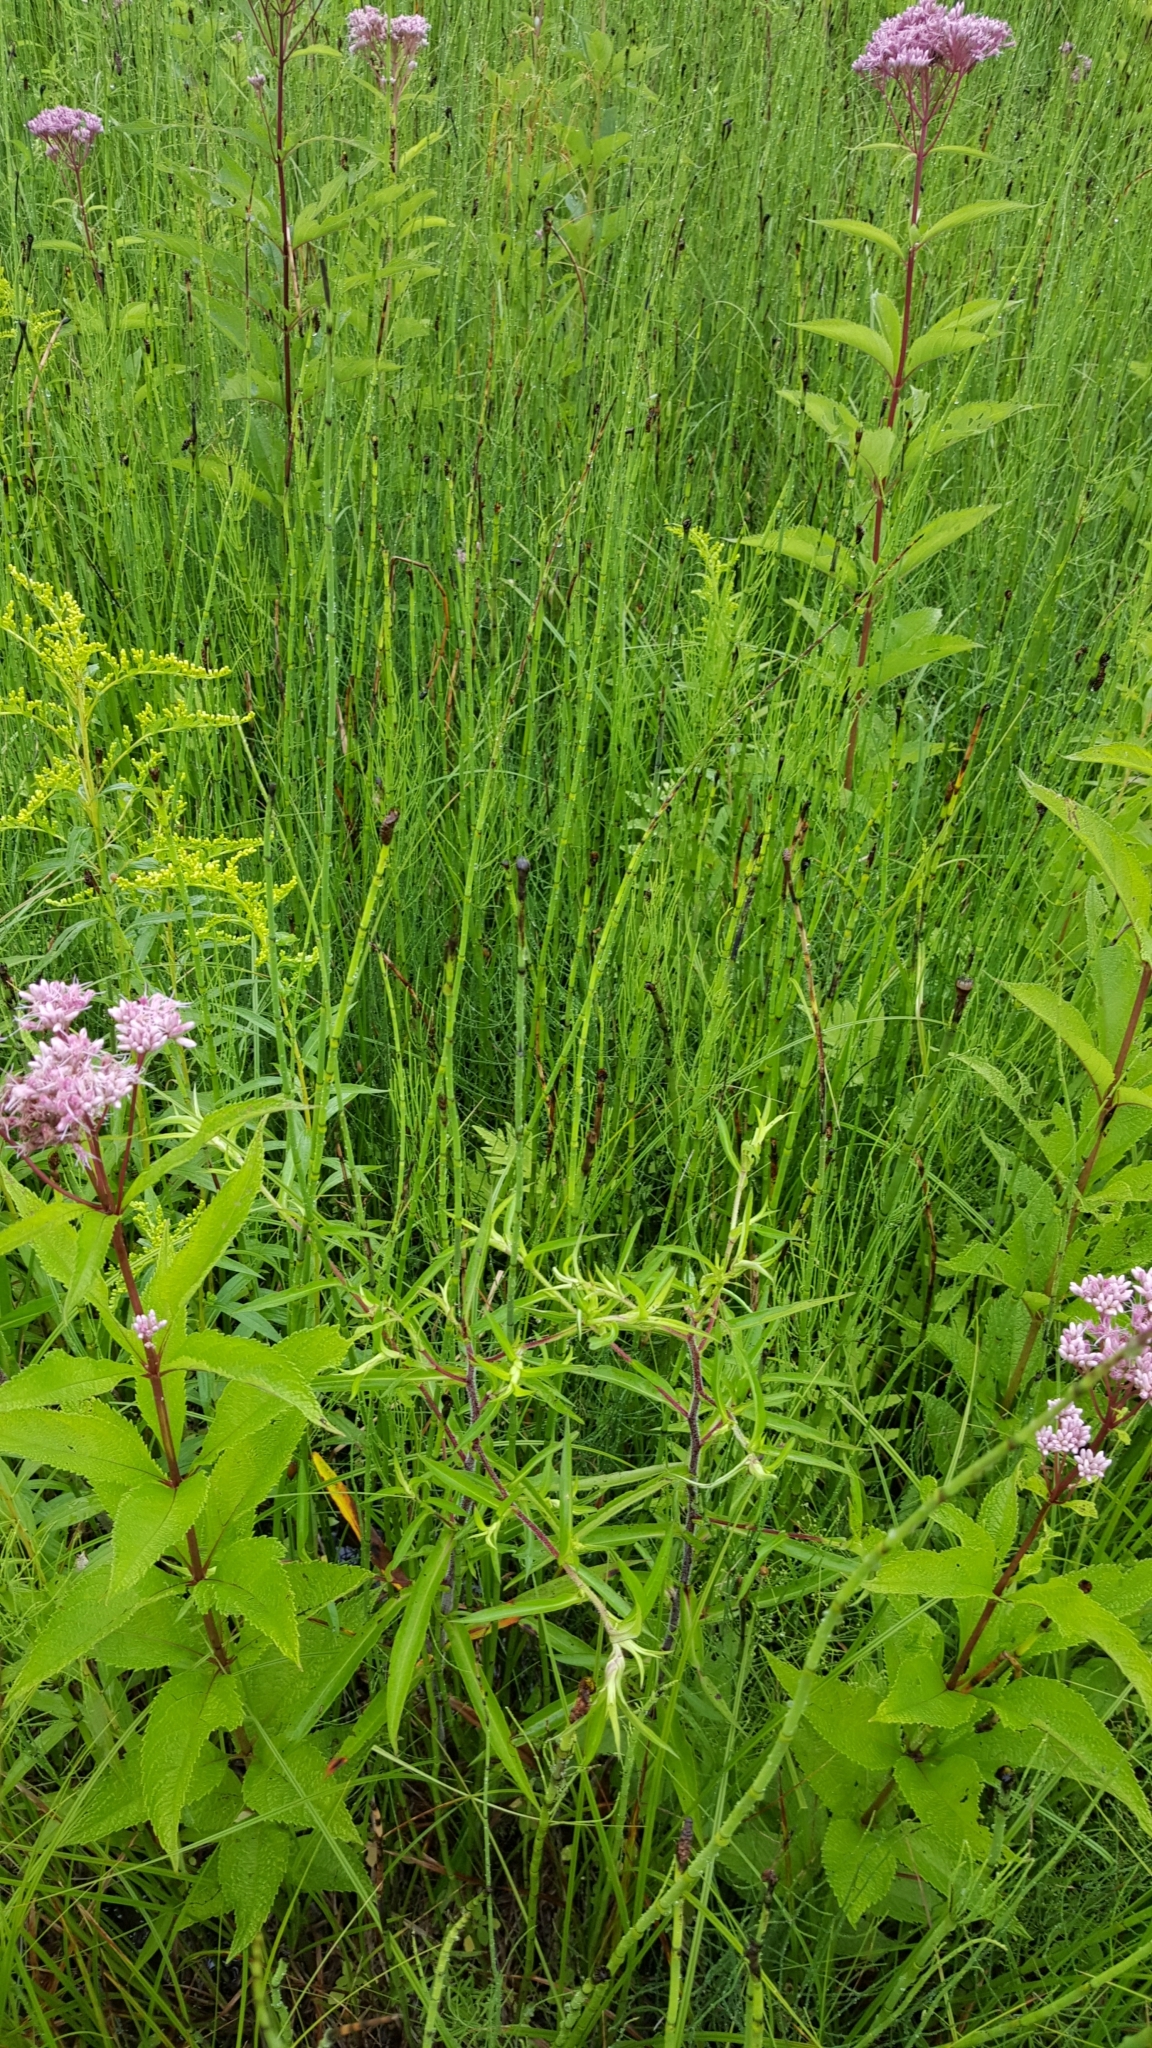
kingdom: Plantae
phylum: Tracheophyta
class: Polypodiopsida
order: Equisetales
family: Equisetaceae
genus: Equisetum
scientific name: Equisetum fluviatile
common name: Water horsetail
